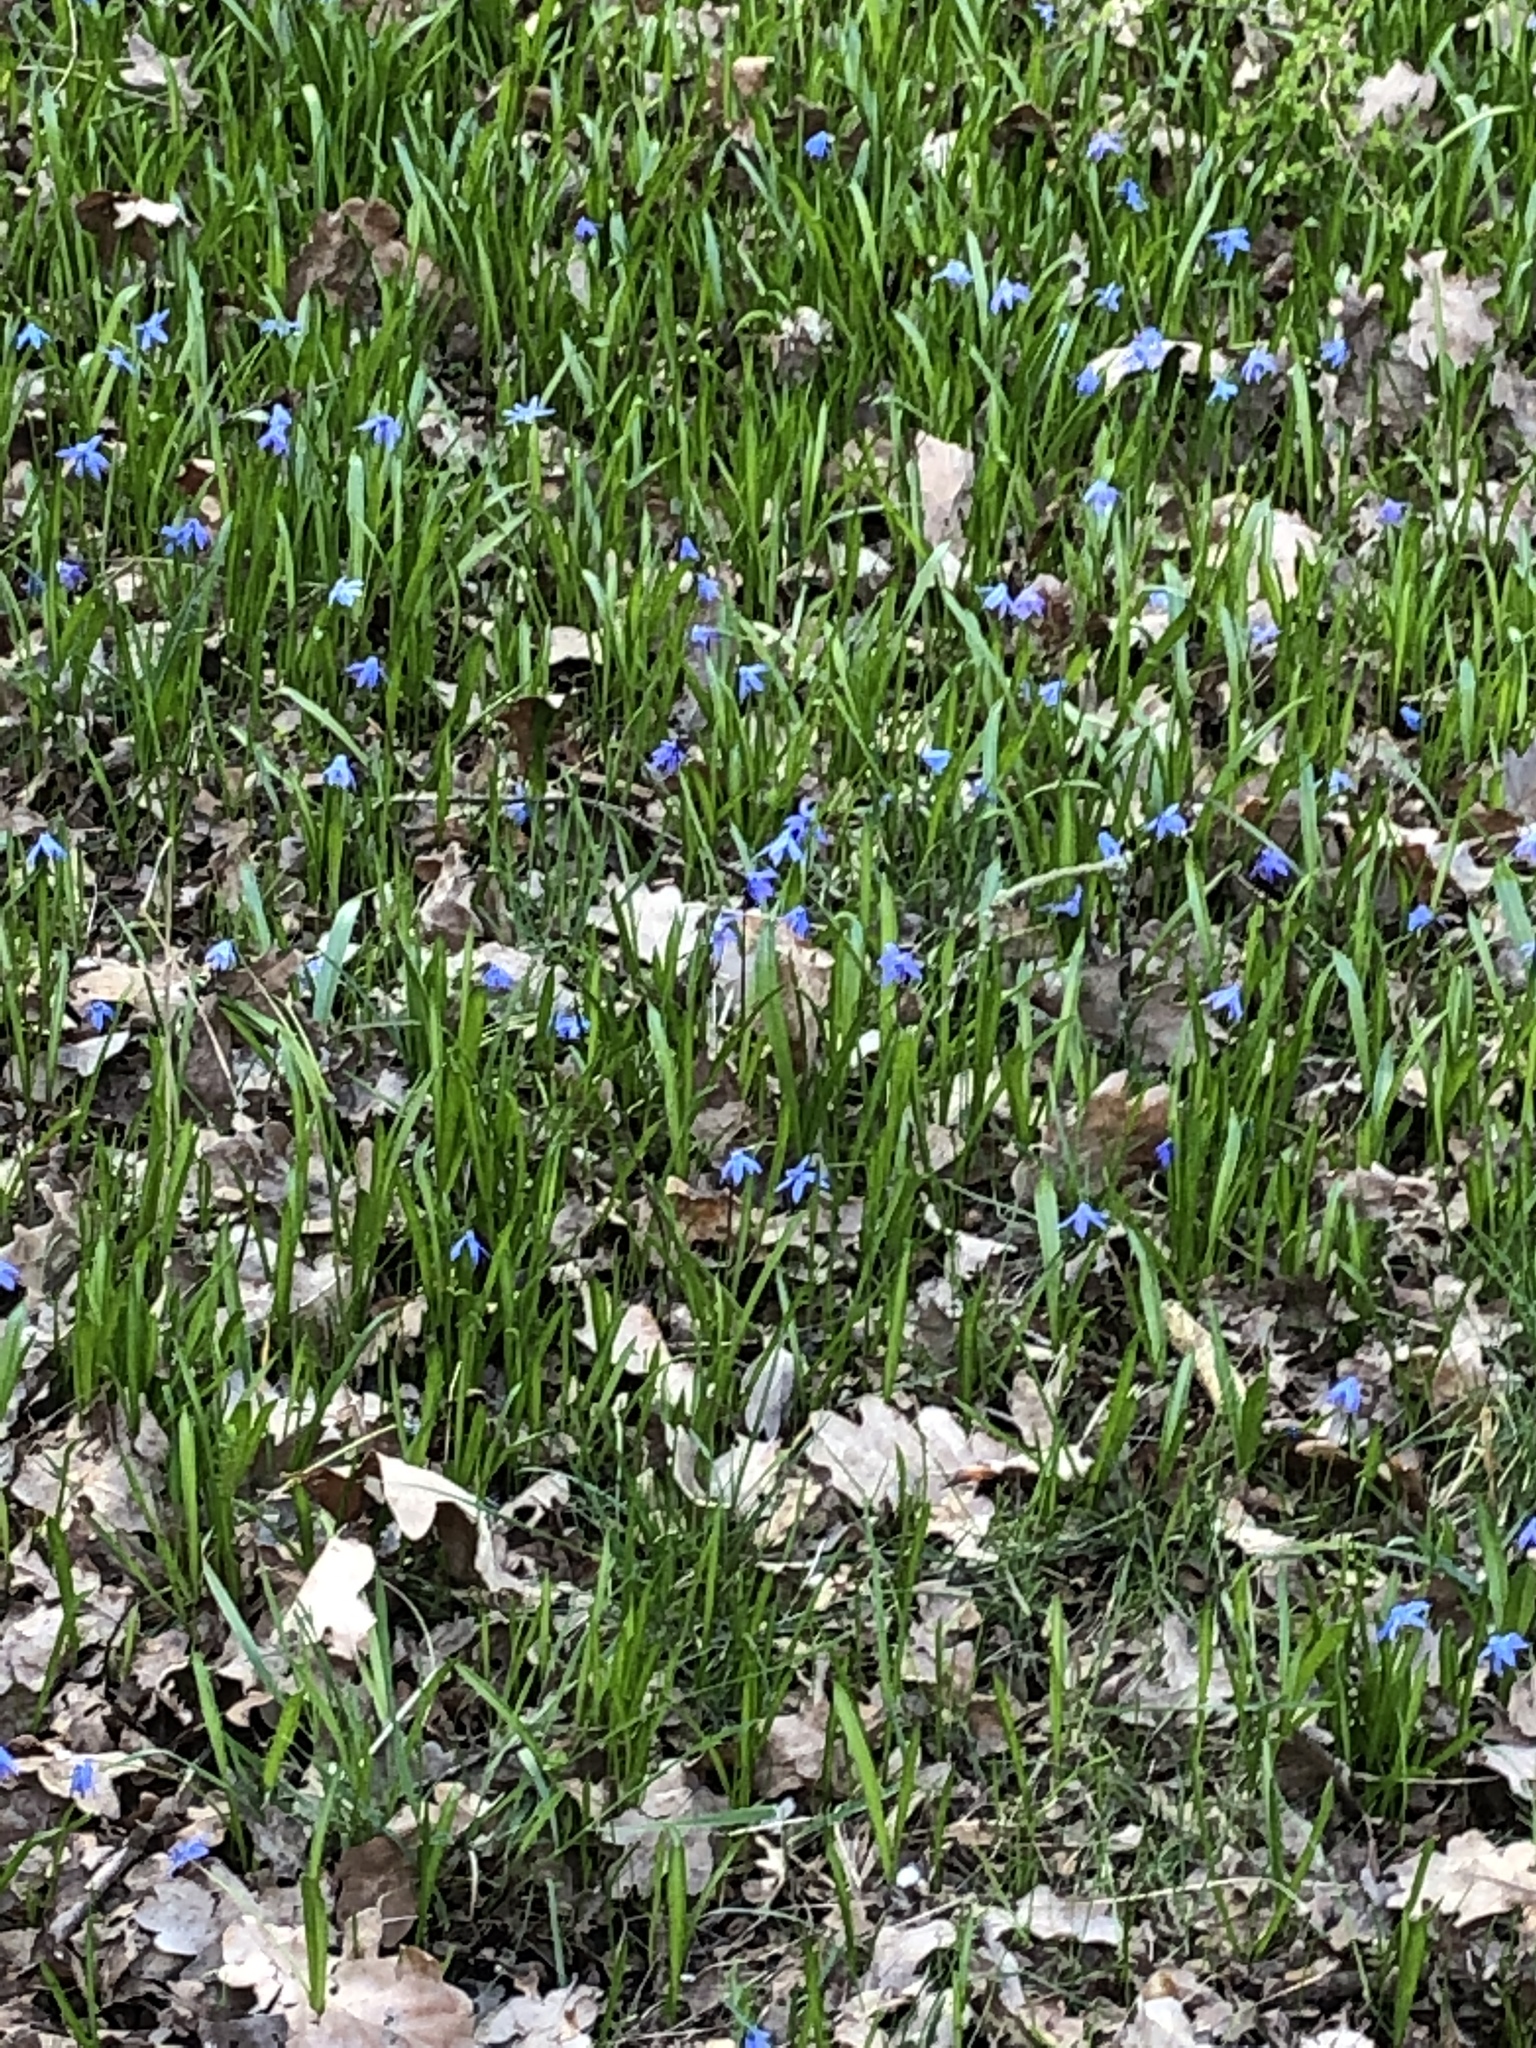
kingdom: Plantae
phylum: Tracheophyta
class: Liliopsida
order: Asparagales
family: Asparagaceae
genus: Scilla
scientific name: Scilla siberica
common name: Siberian squill
